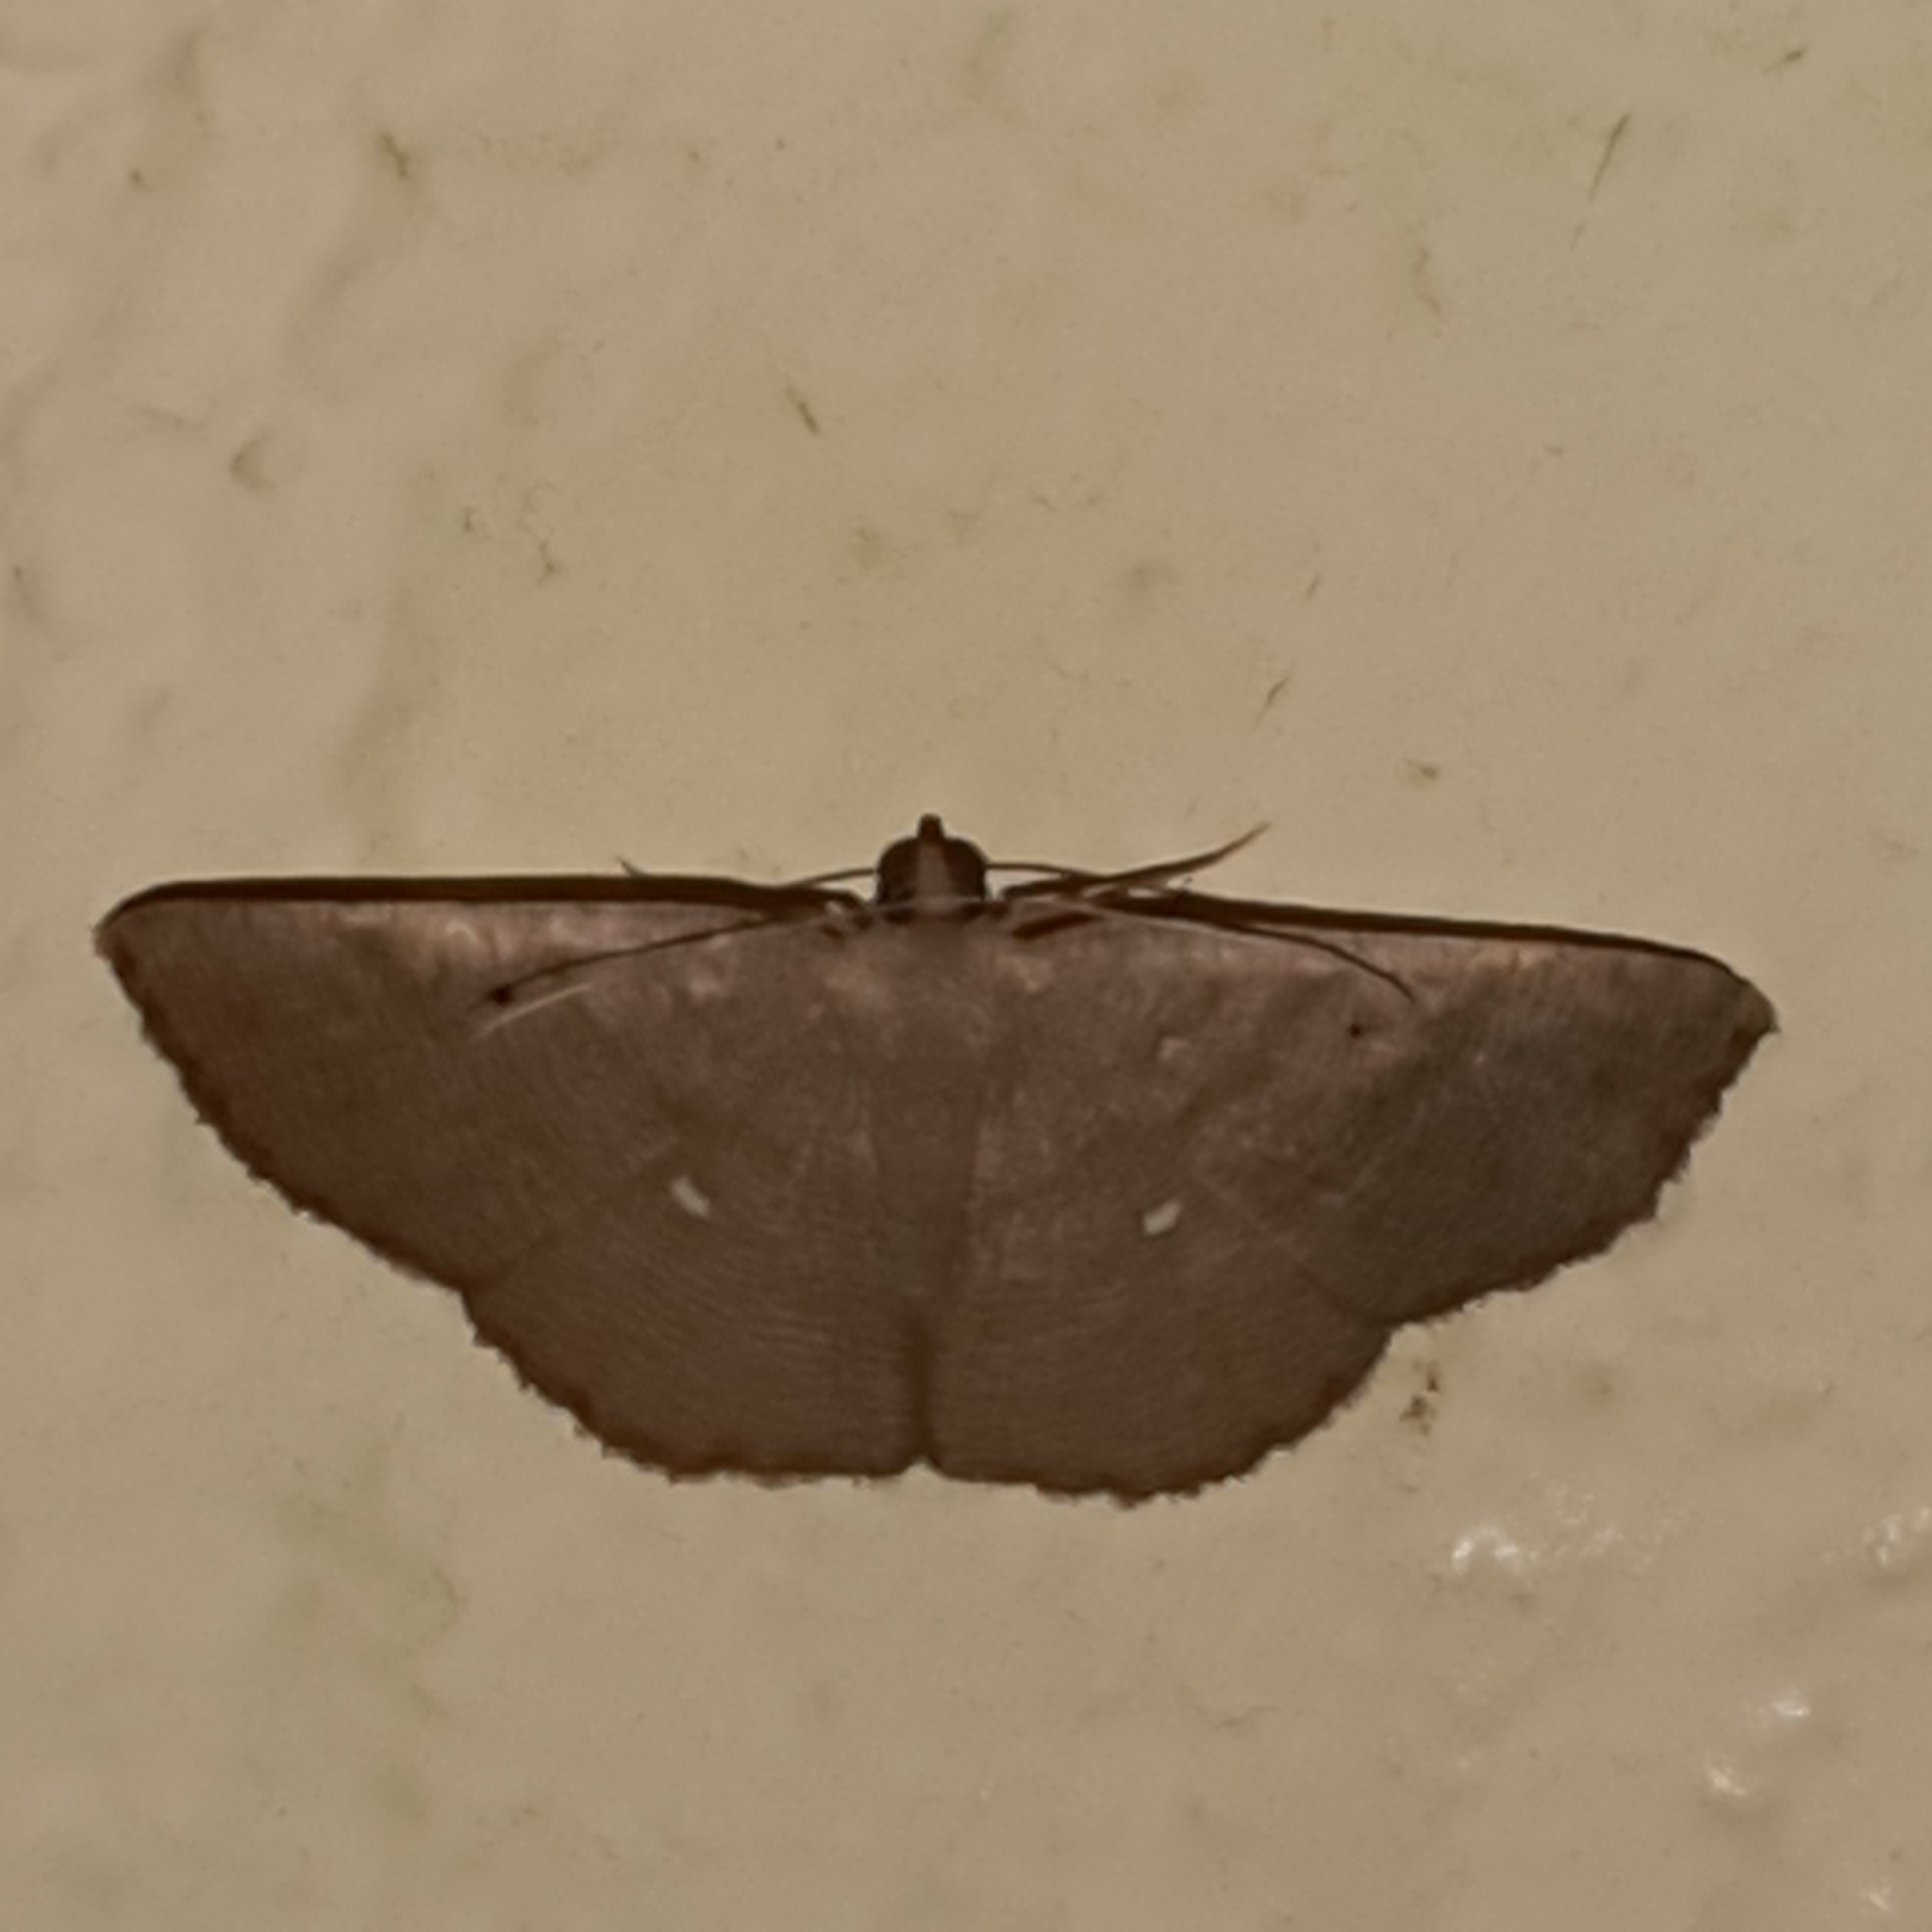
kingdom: Animalia
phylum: Arthropoda
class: Insecta
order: Lepidoptera
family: Geometridae
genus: Parilexia
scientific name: Parilexia cermala
